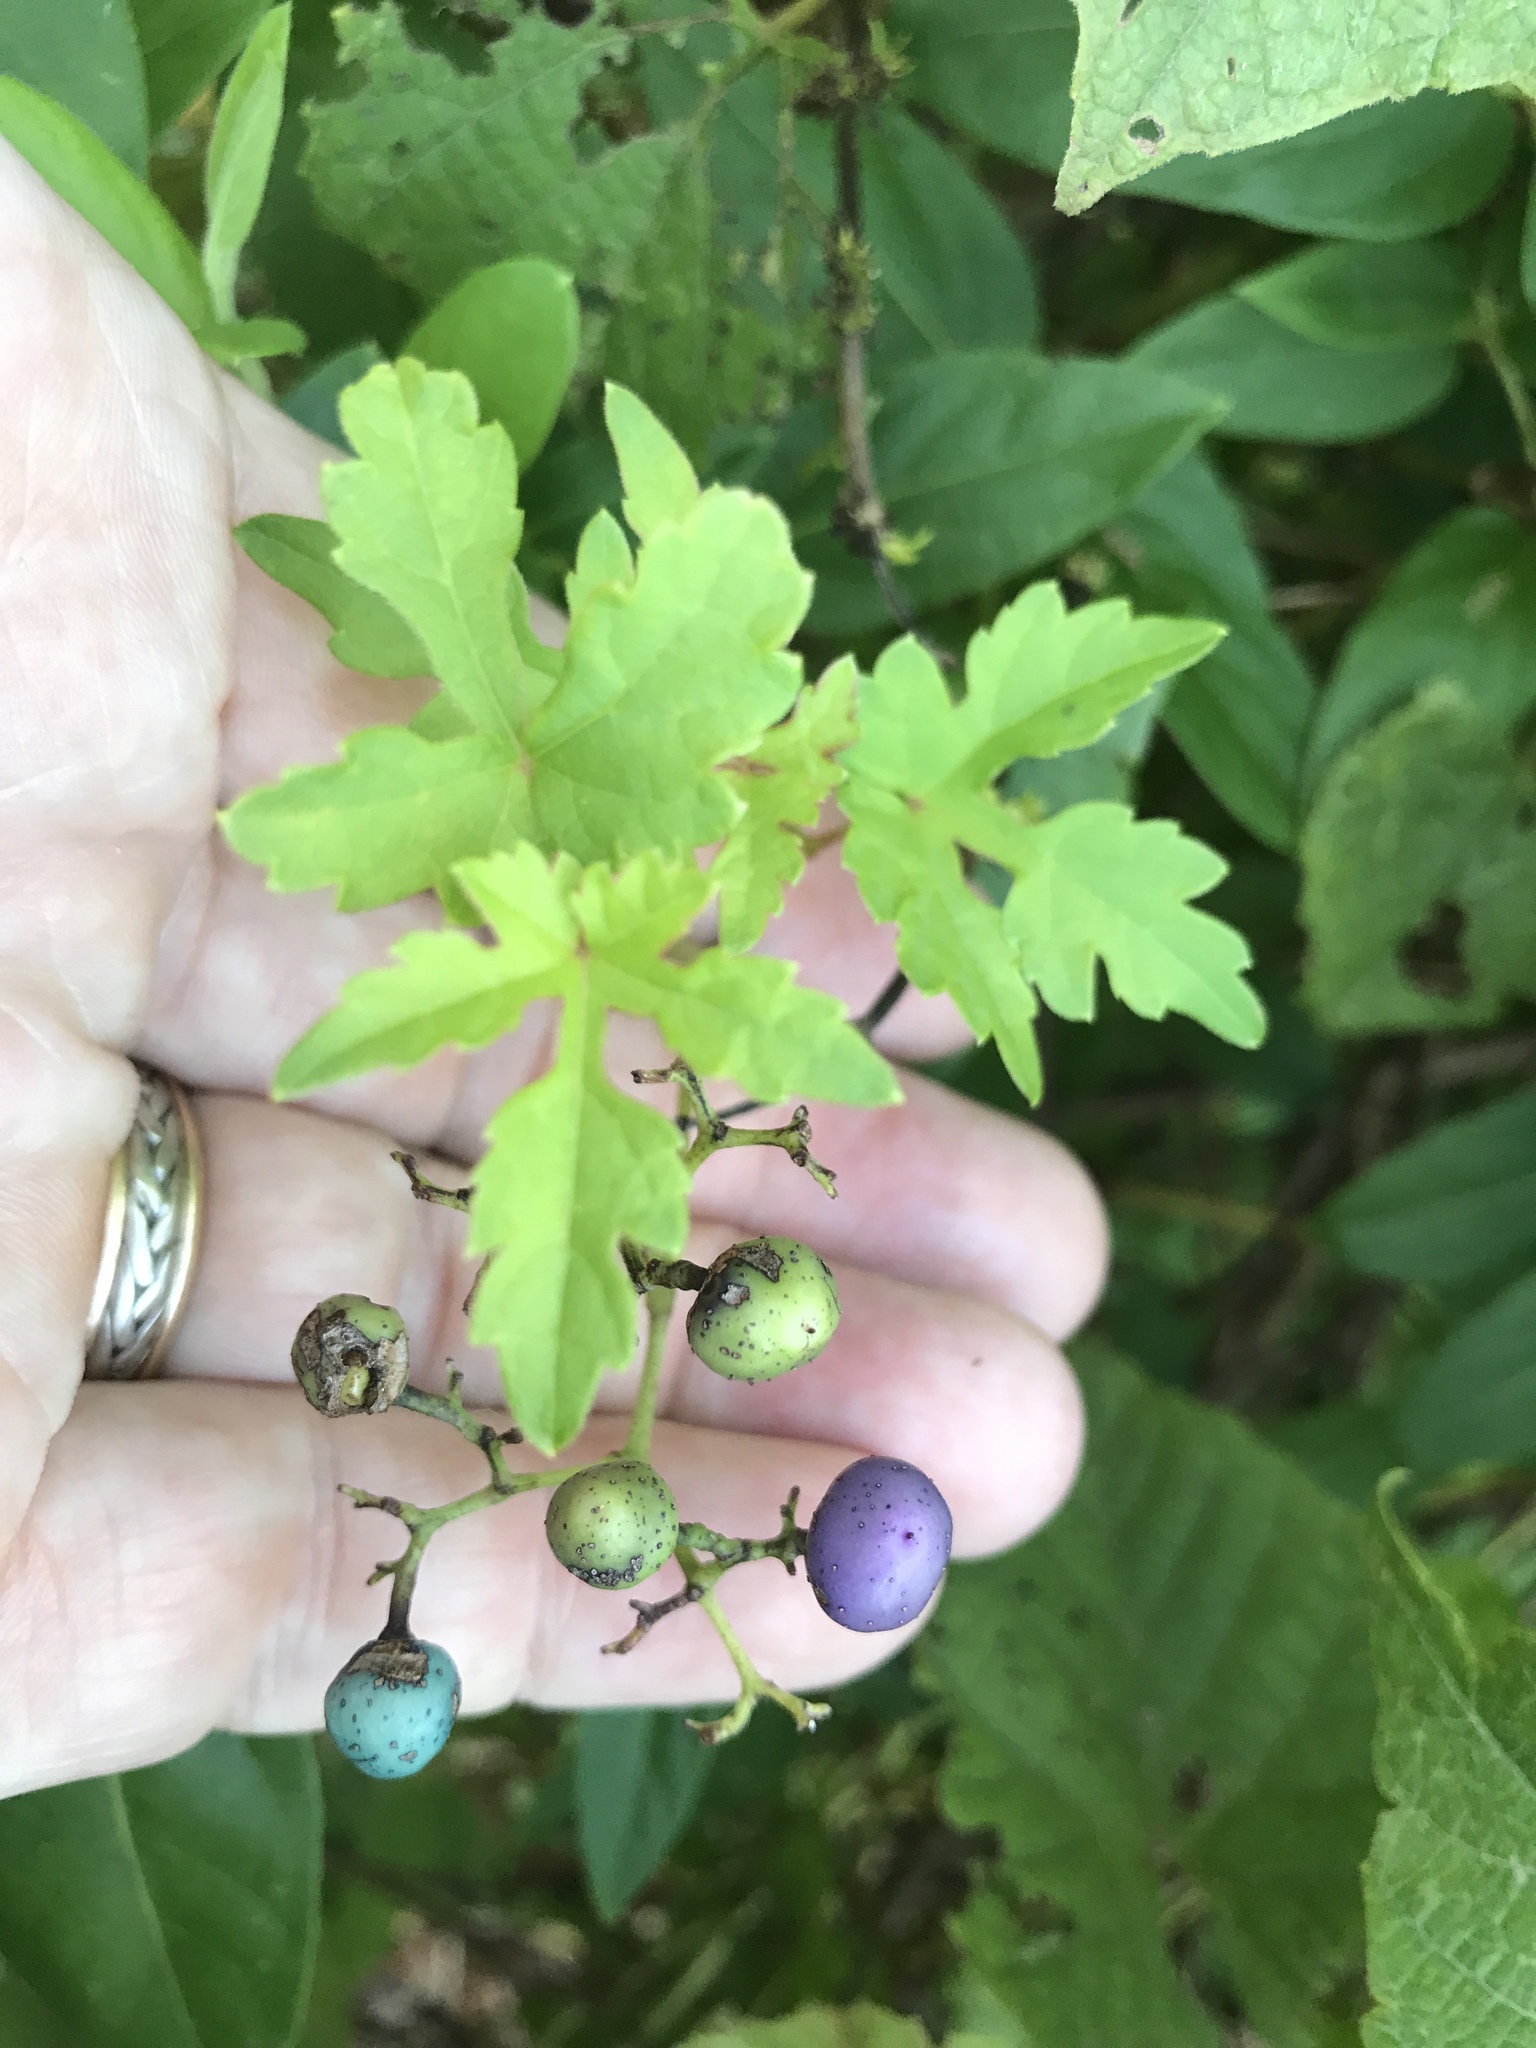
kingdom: Plantae
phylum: Tracheophyta
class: Magnoliopsida
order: Vitales
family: Vitaceae
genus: Ampelopsis
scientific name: Ampelopsis glandulosa
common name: Amur peppervine
